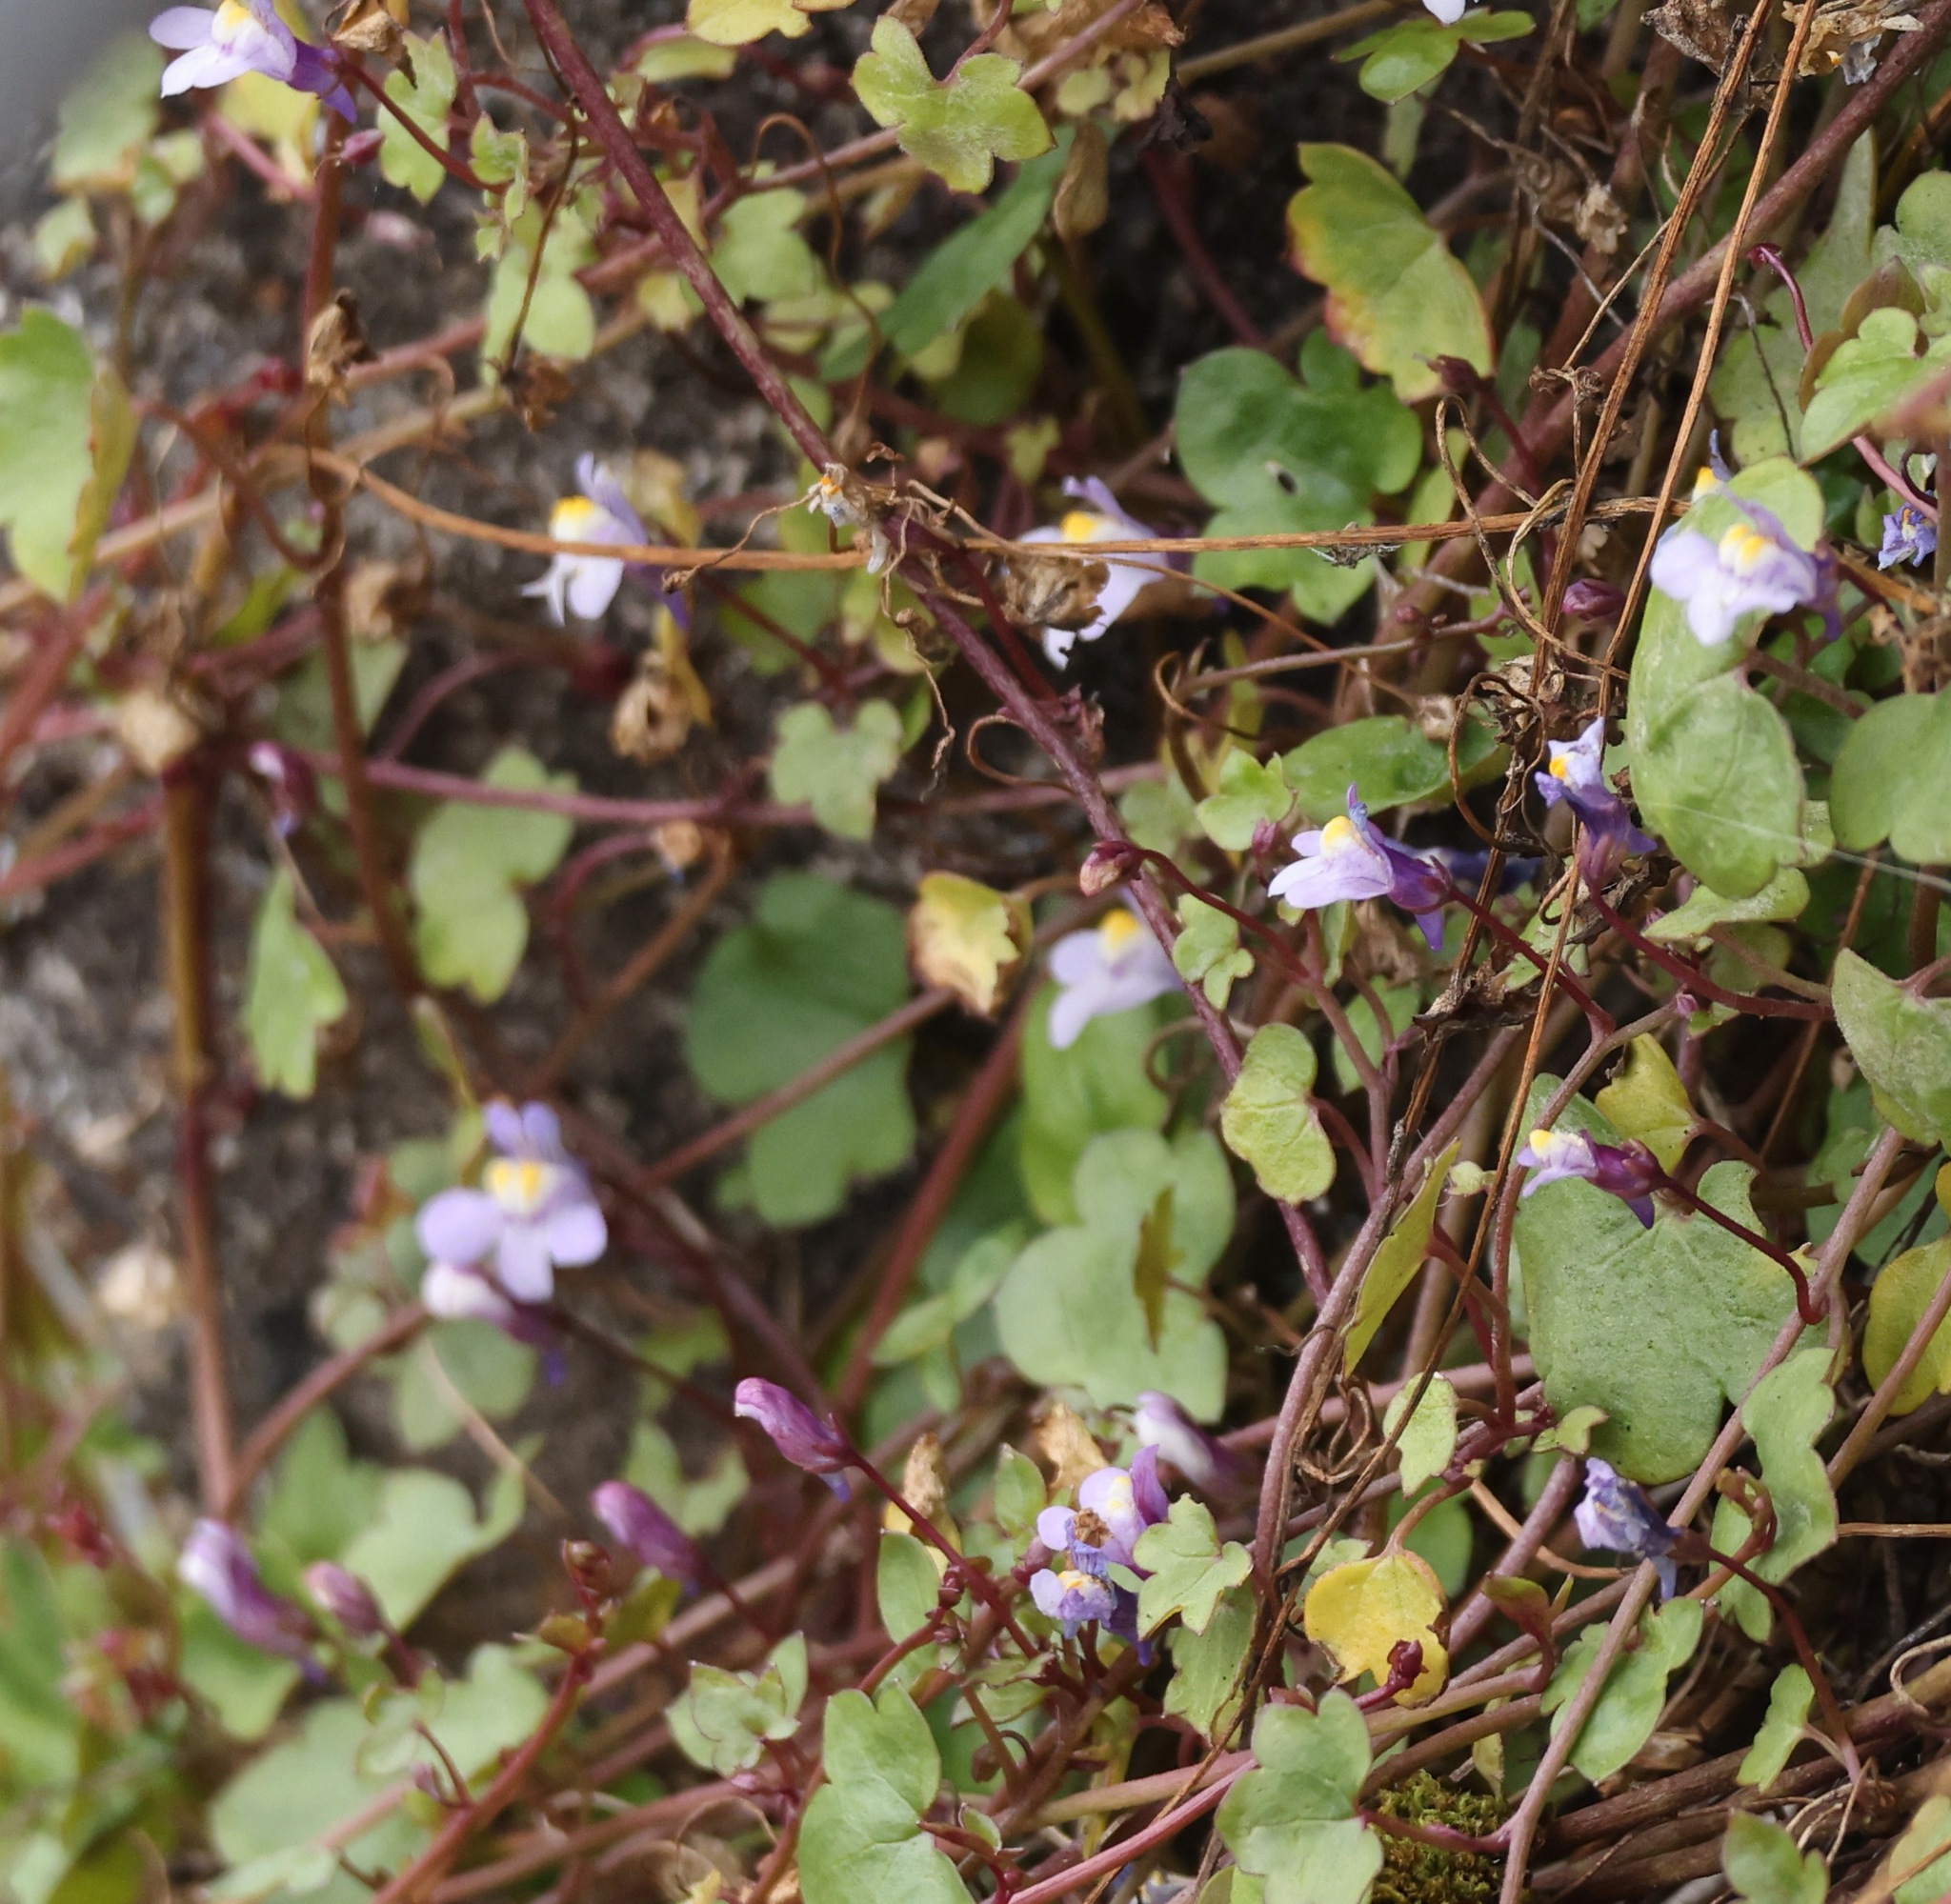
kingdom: Plantae
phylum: Tracheophyta
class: Magnoliopsida
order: Lamiales
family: Plantaginaceae
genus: Cymbalaria
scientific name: Cymbalaria muralis
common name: Ivy-leaved toadflax
